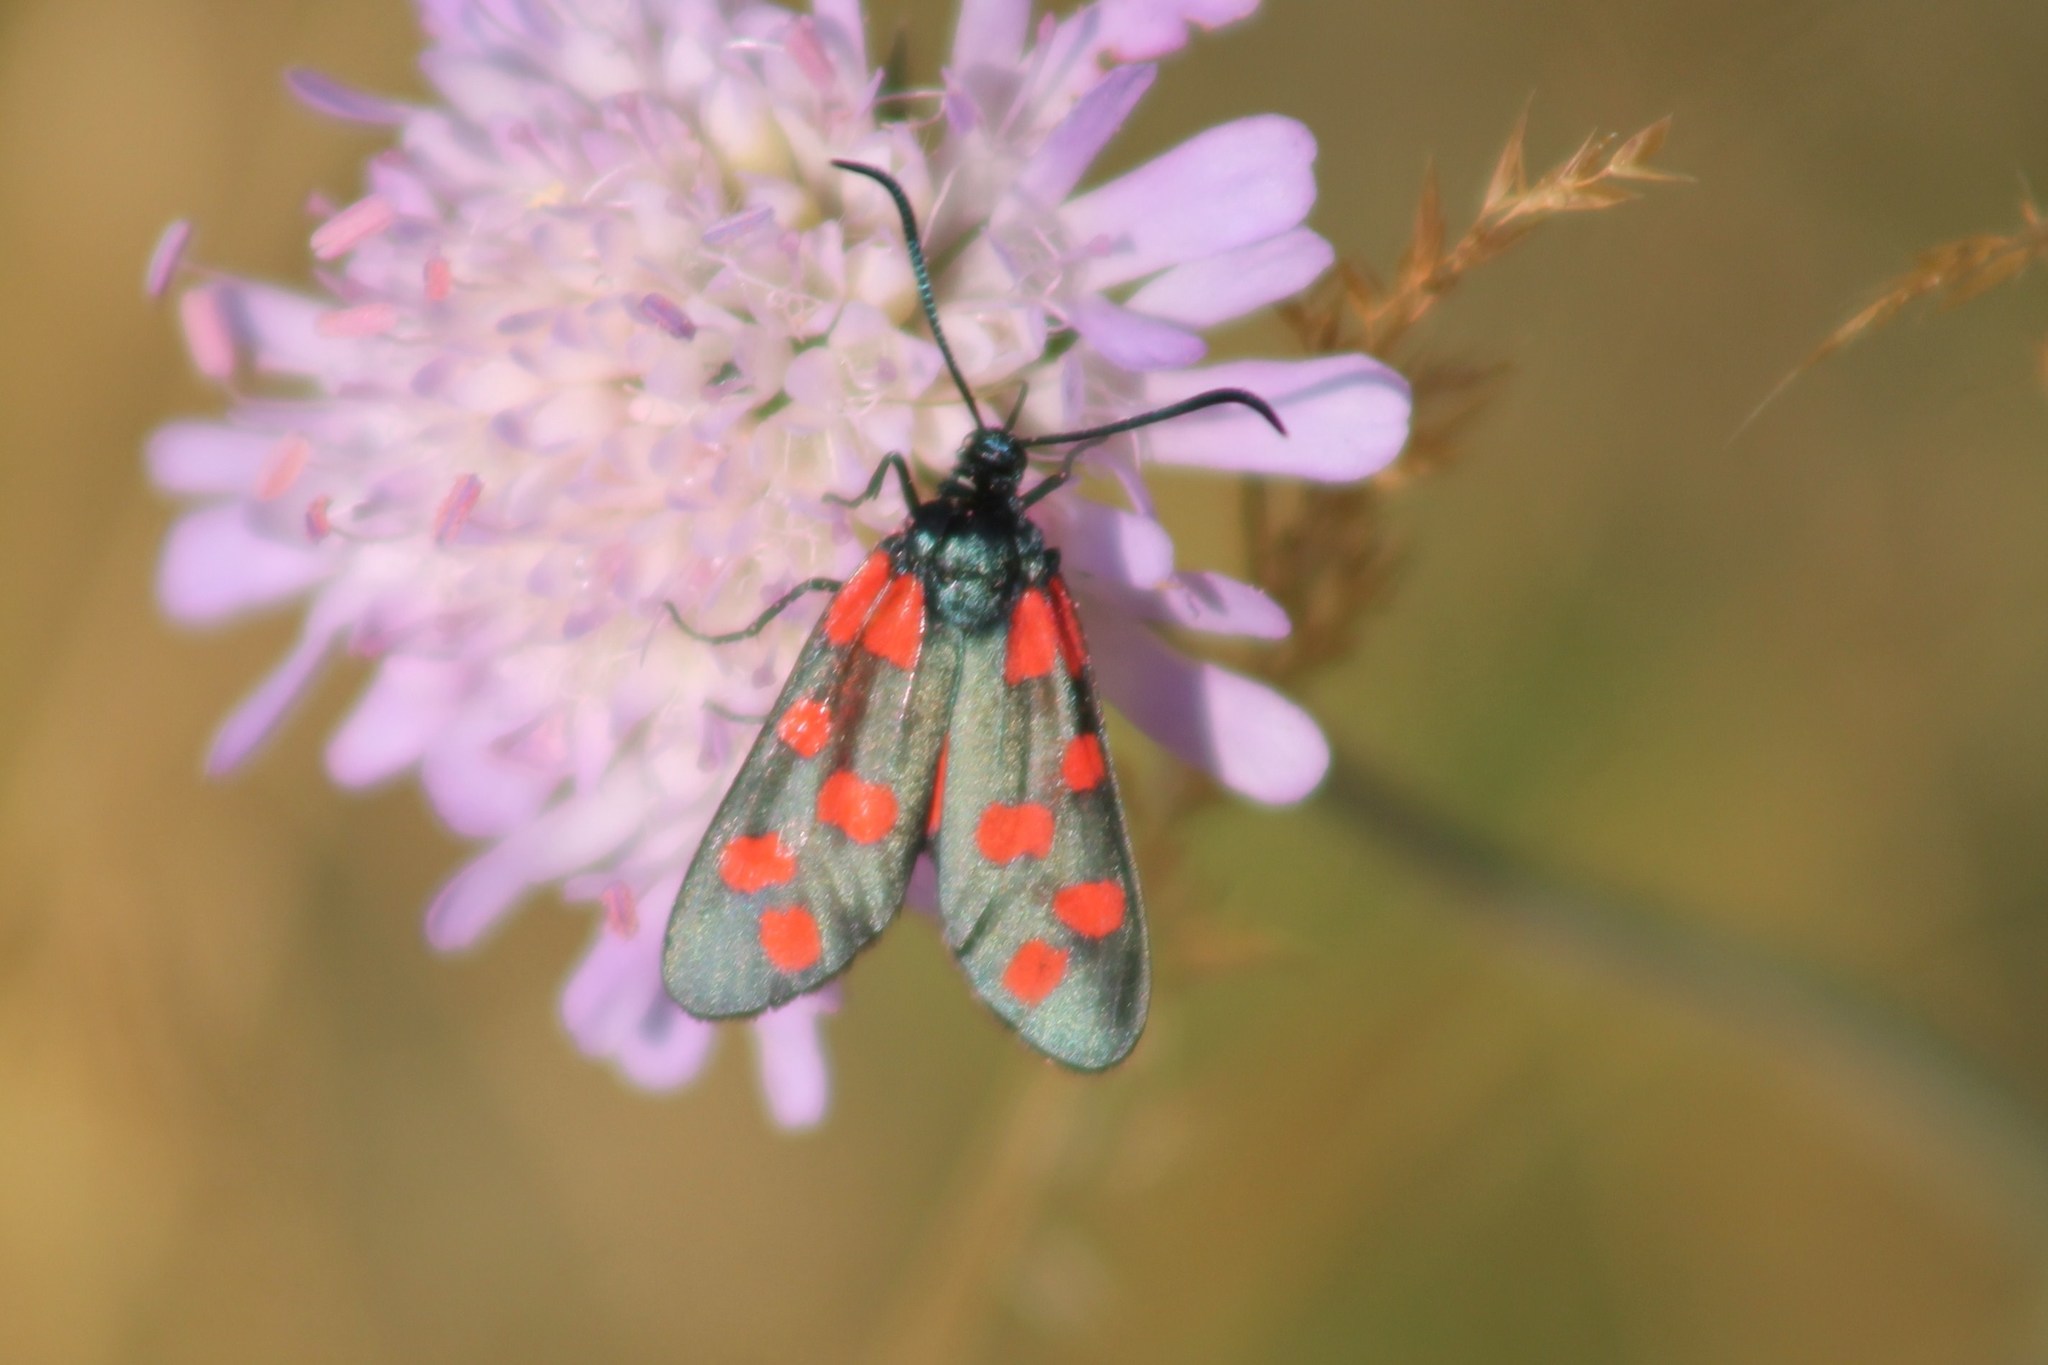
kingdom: Animalia
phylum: Arthropoda
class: Insecta
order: Lepidoptera
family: Zygaenidae
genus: Zygaena
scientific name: Zygaena filipendulae
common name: Six-spot burnet
